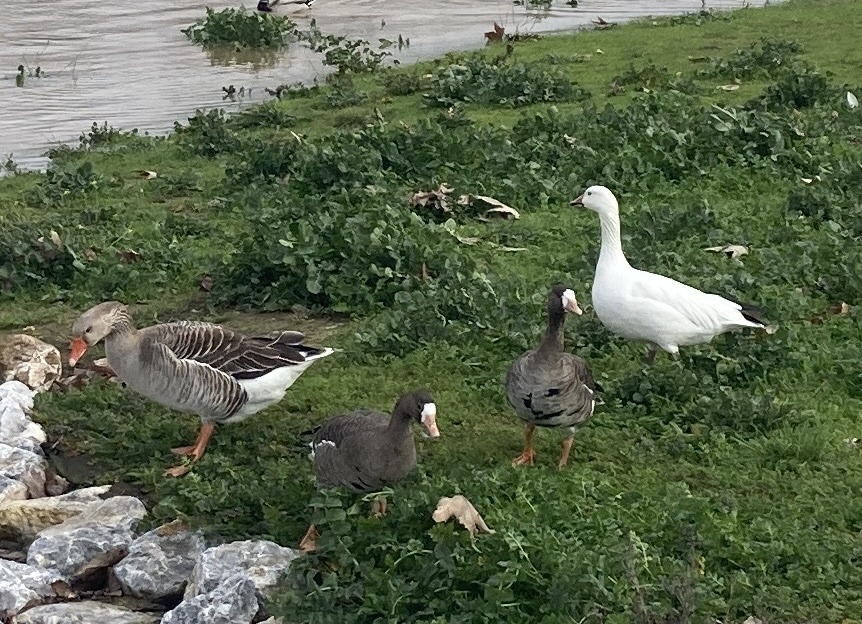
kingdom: Animalia
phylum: Chordata
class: Aves
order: Anseriformes
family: Anatidae
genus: Anser
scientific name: Anser albifrons
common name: Greater white-fronted goose
